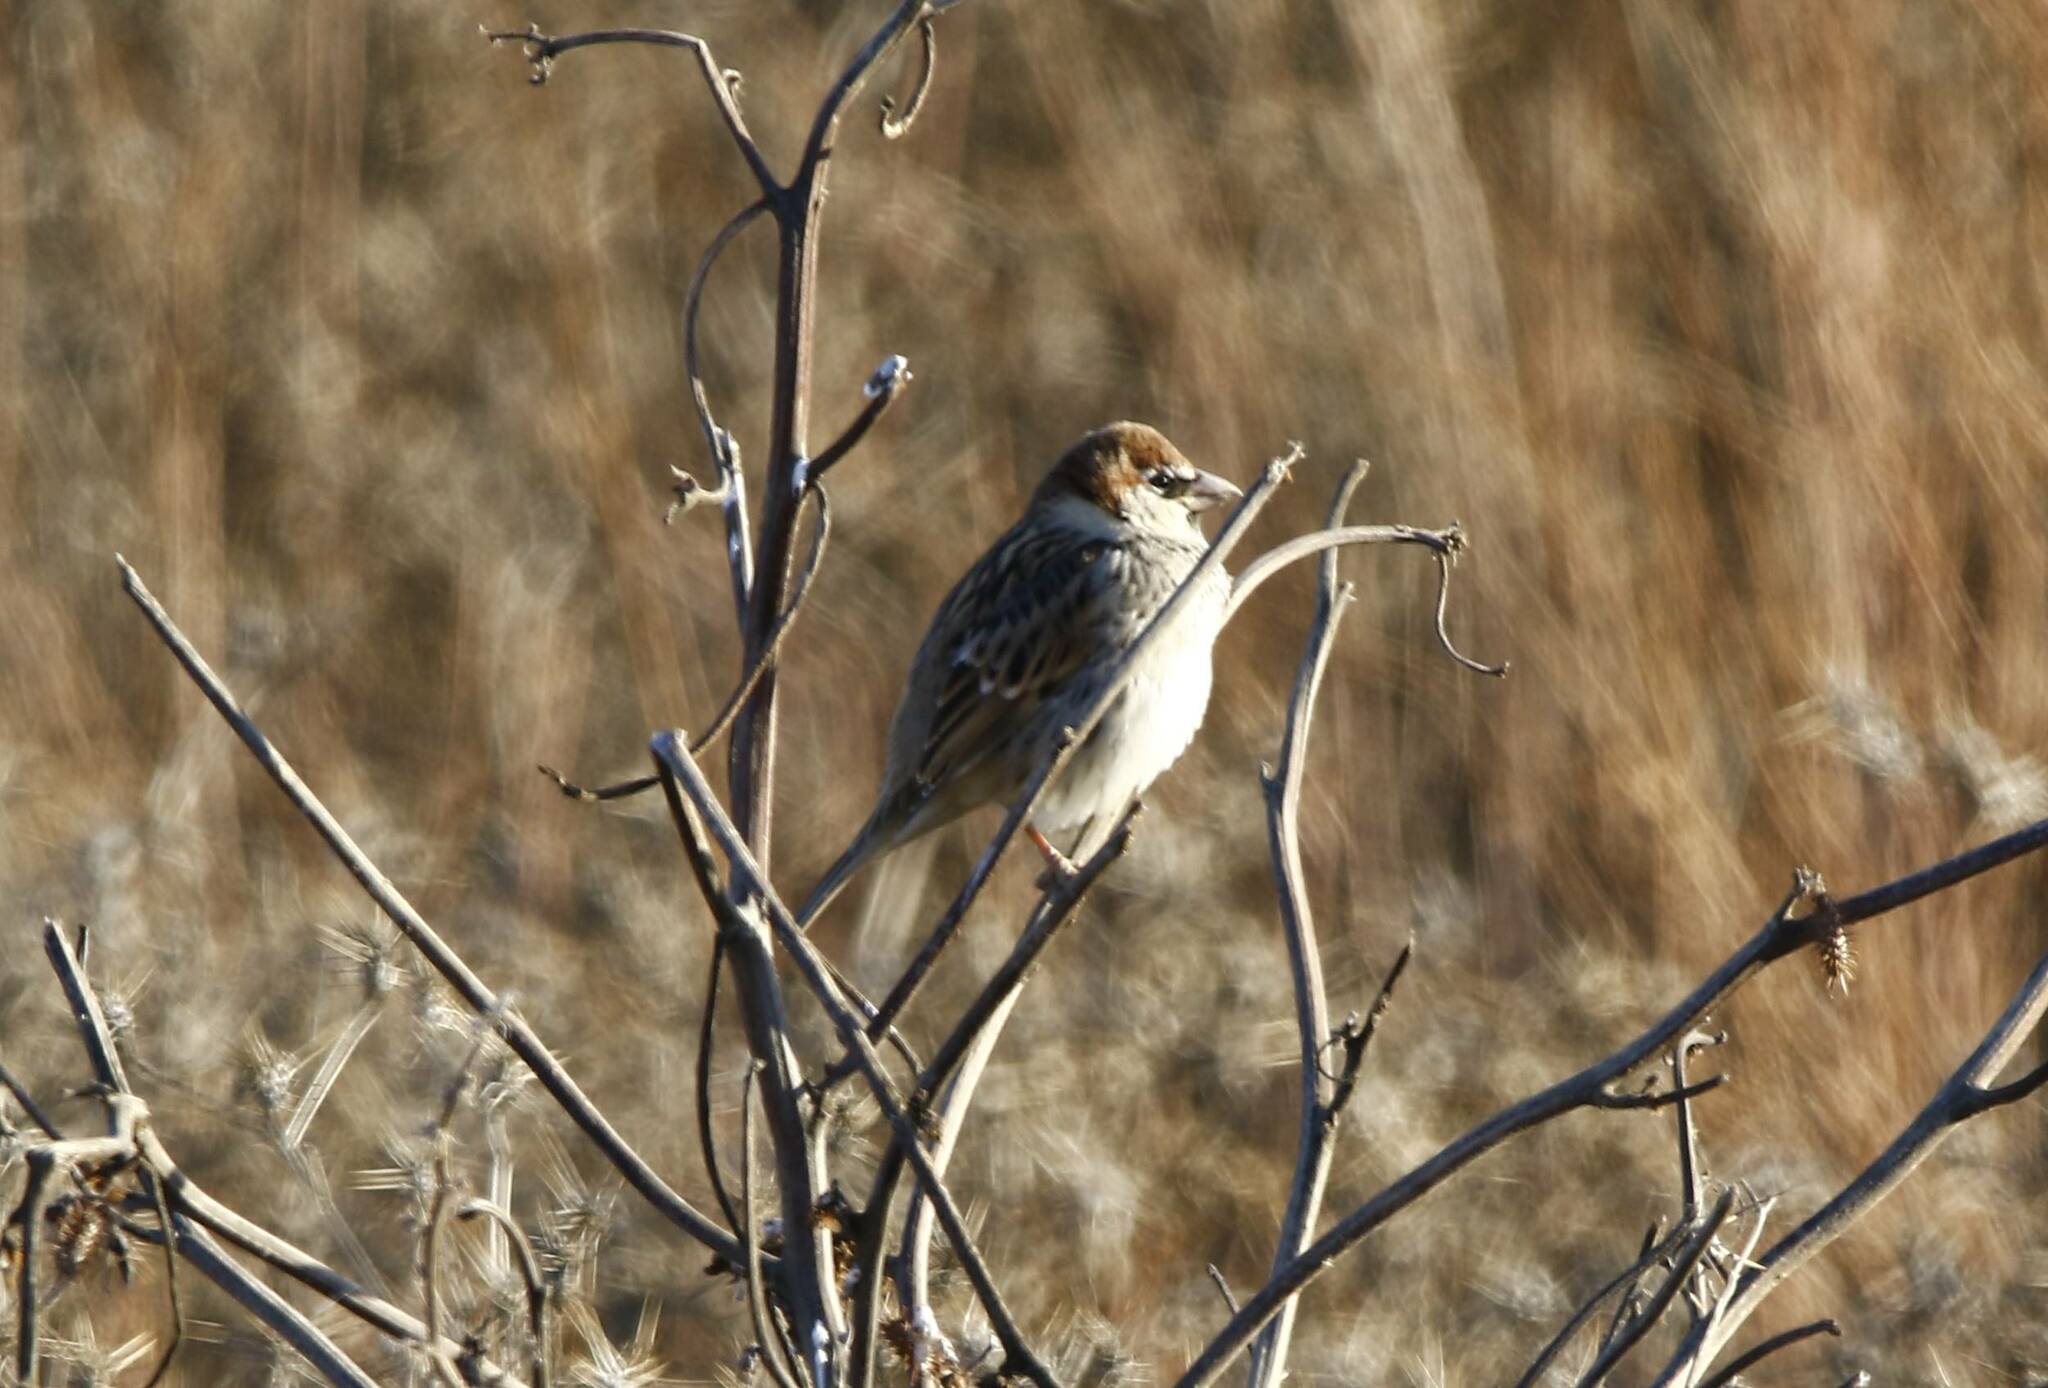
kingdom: Animalia
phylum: Chordata
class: Aves
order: Passeriformes
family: Passeridae
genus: Passer
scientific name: Passer hispaniolensis
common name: Spanish sparrow
